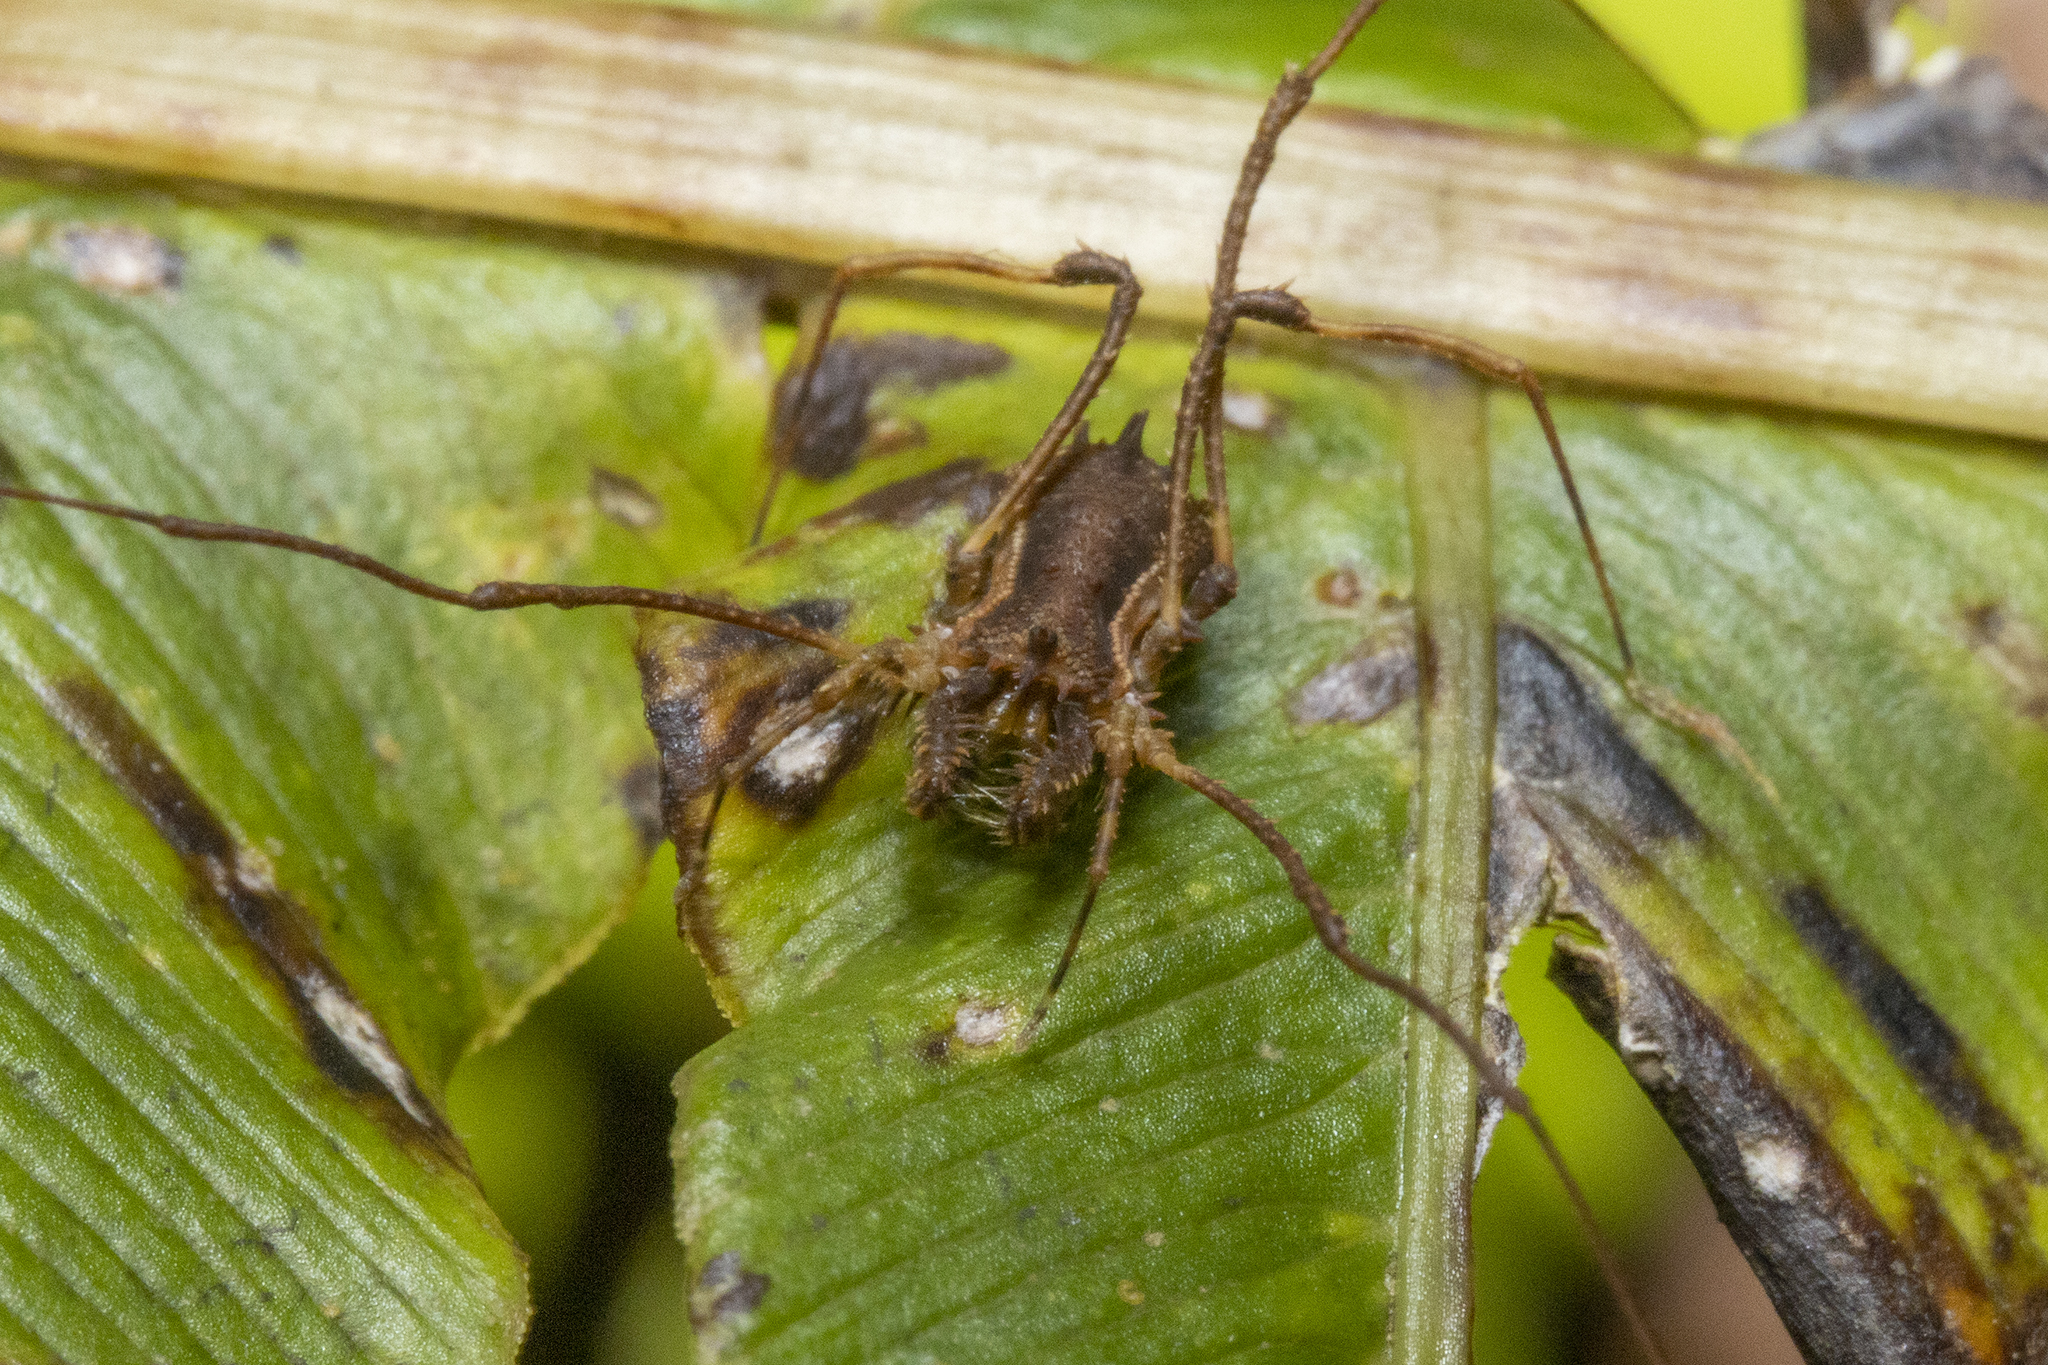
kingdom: Animalia
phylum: Arthropoda
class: Arachnida
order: Opiliones
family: Triaenonychidae
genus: Algidia
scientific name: Algidia interrupta
